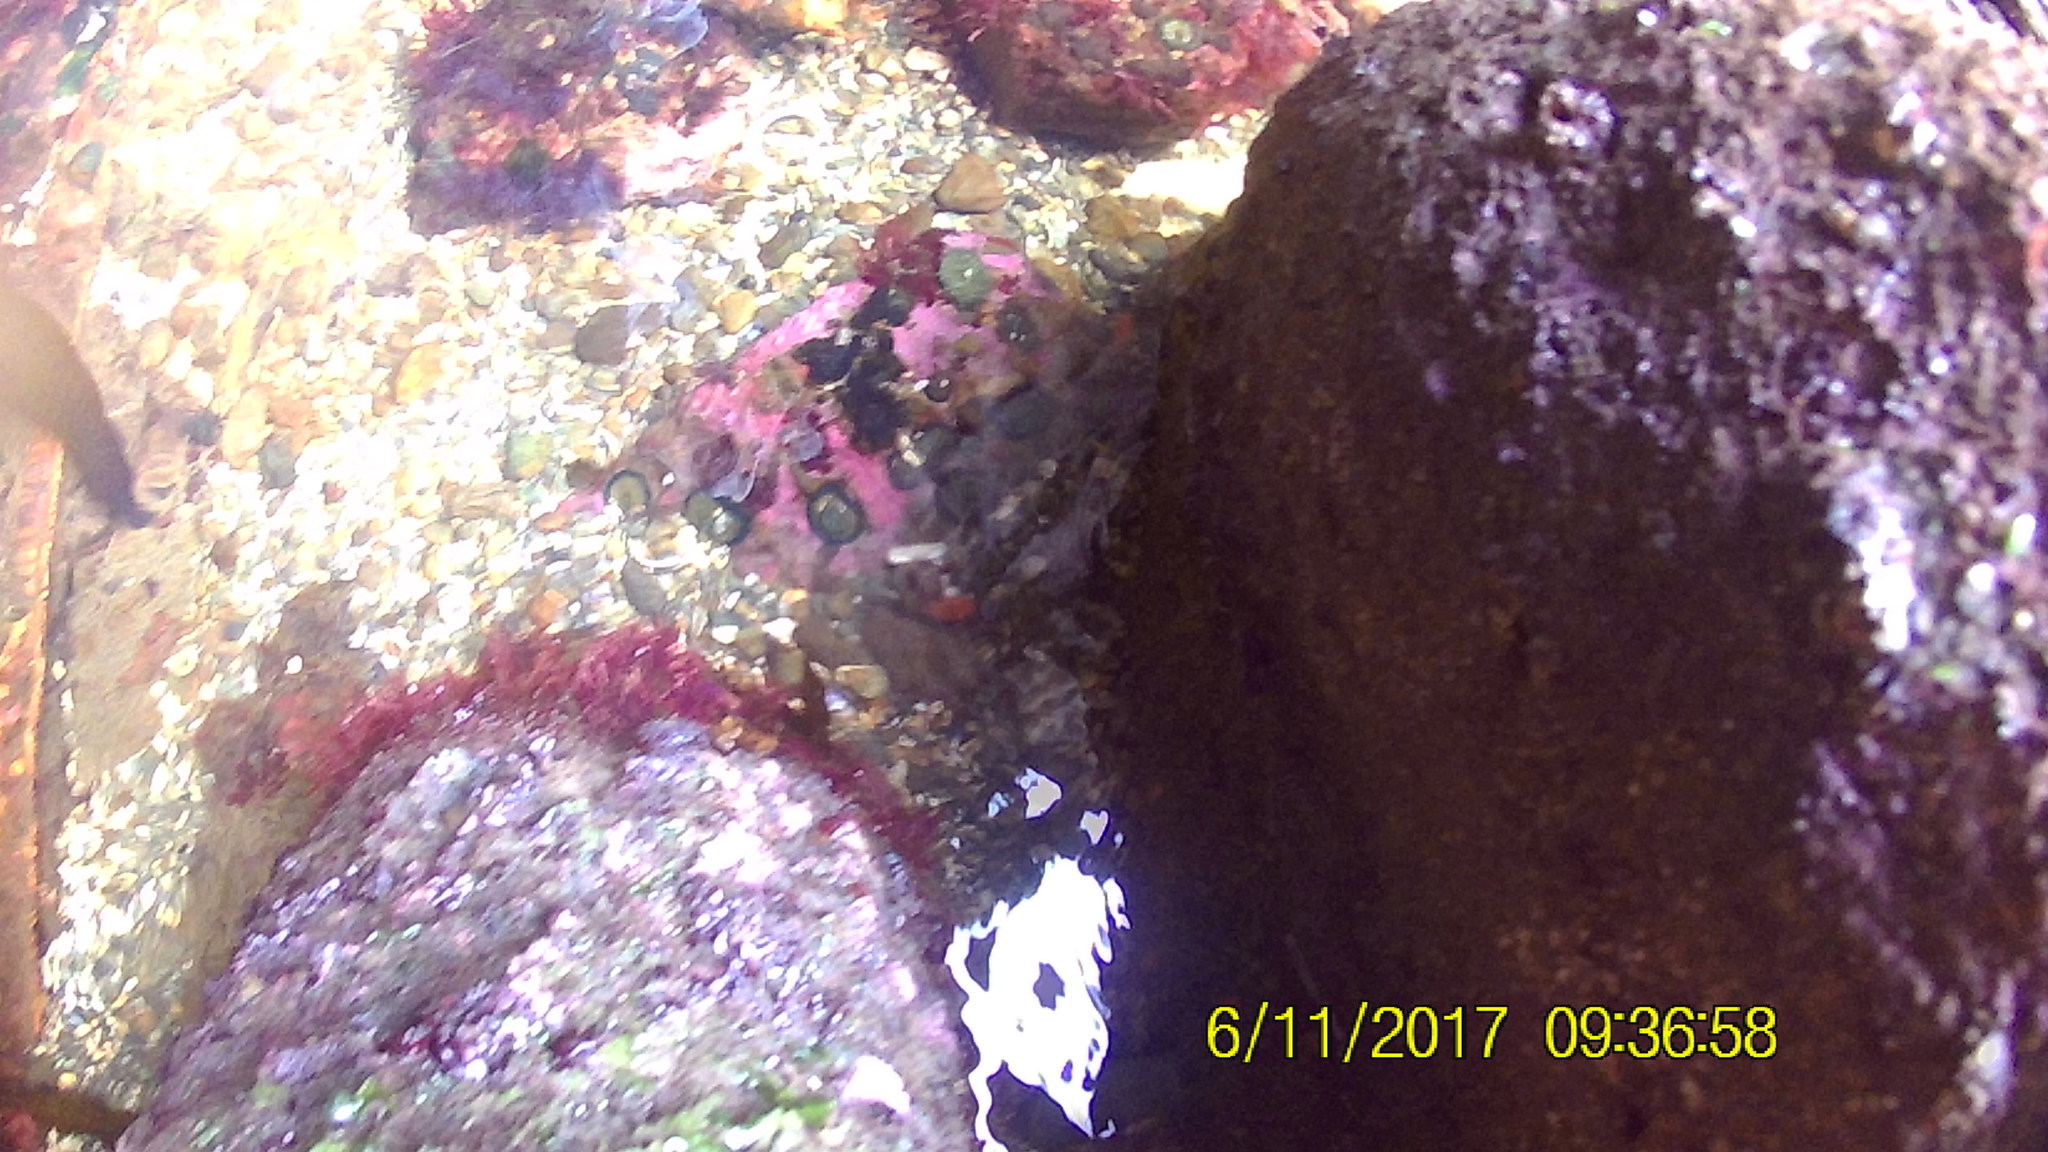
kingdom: Animalia
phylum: Echinodermata
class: Echinoidea
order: Camarodonta
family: Strongylocentrotidae
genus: Strongylocentrotus
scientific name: Strongylocentrotus purpuratus
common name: Purple sea urchin
